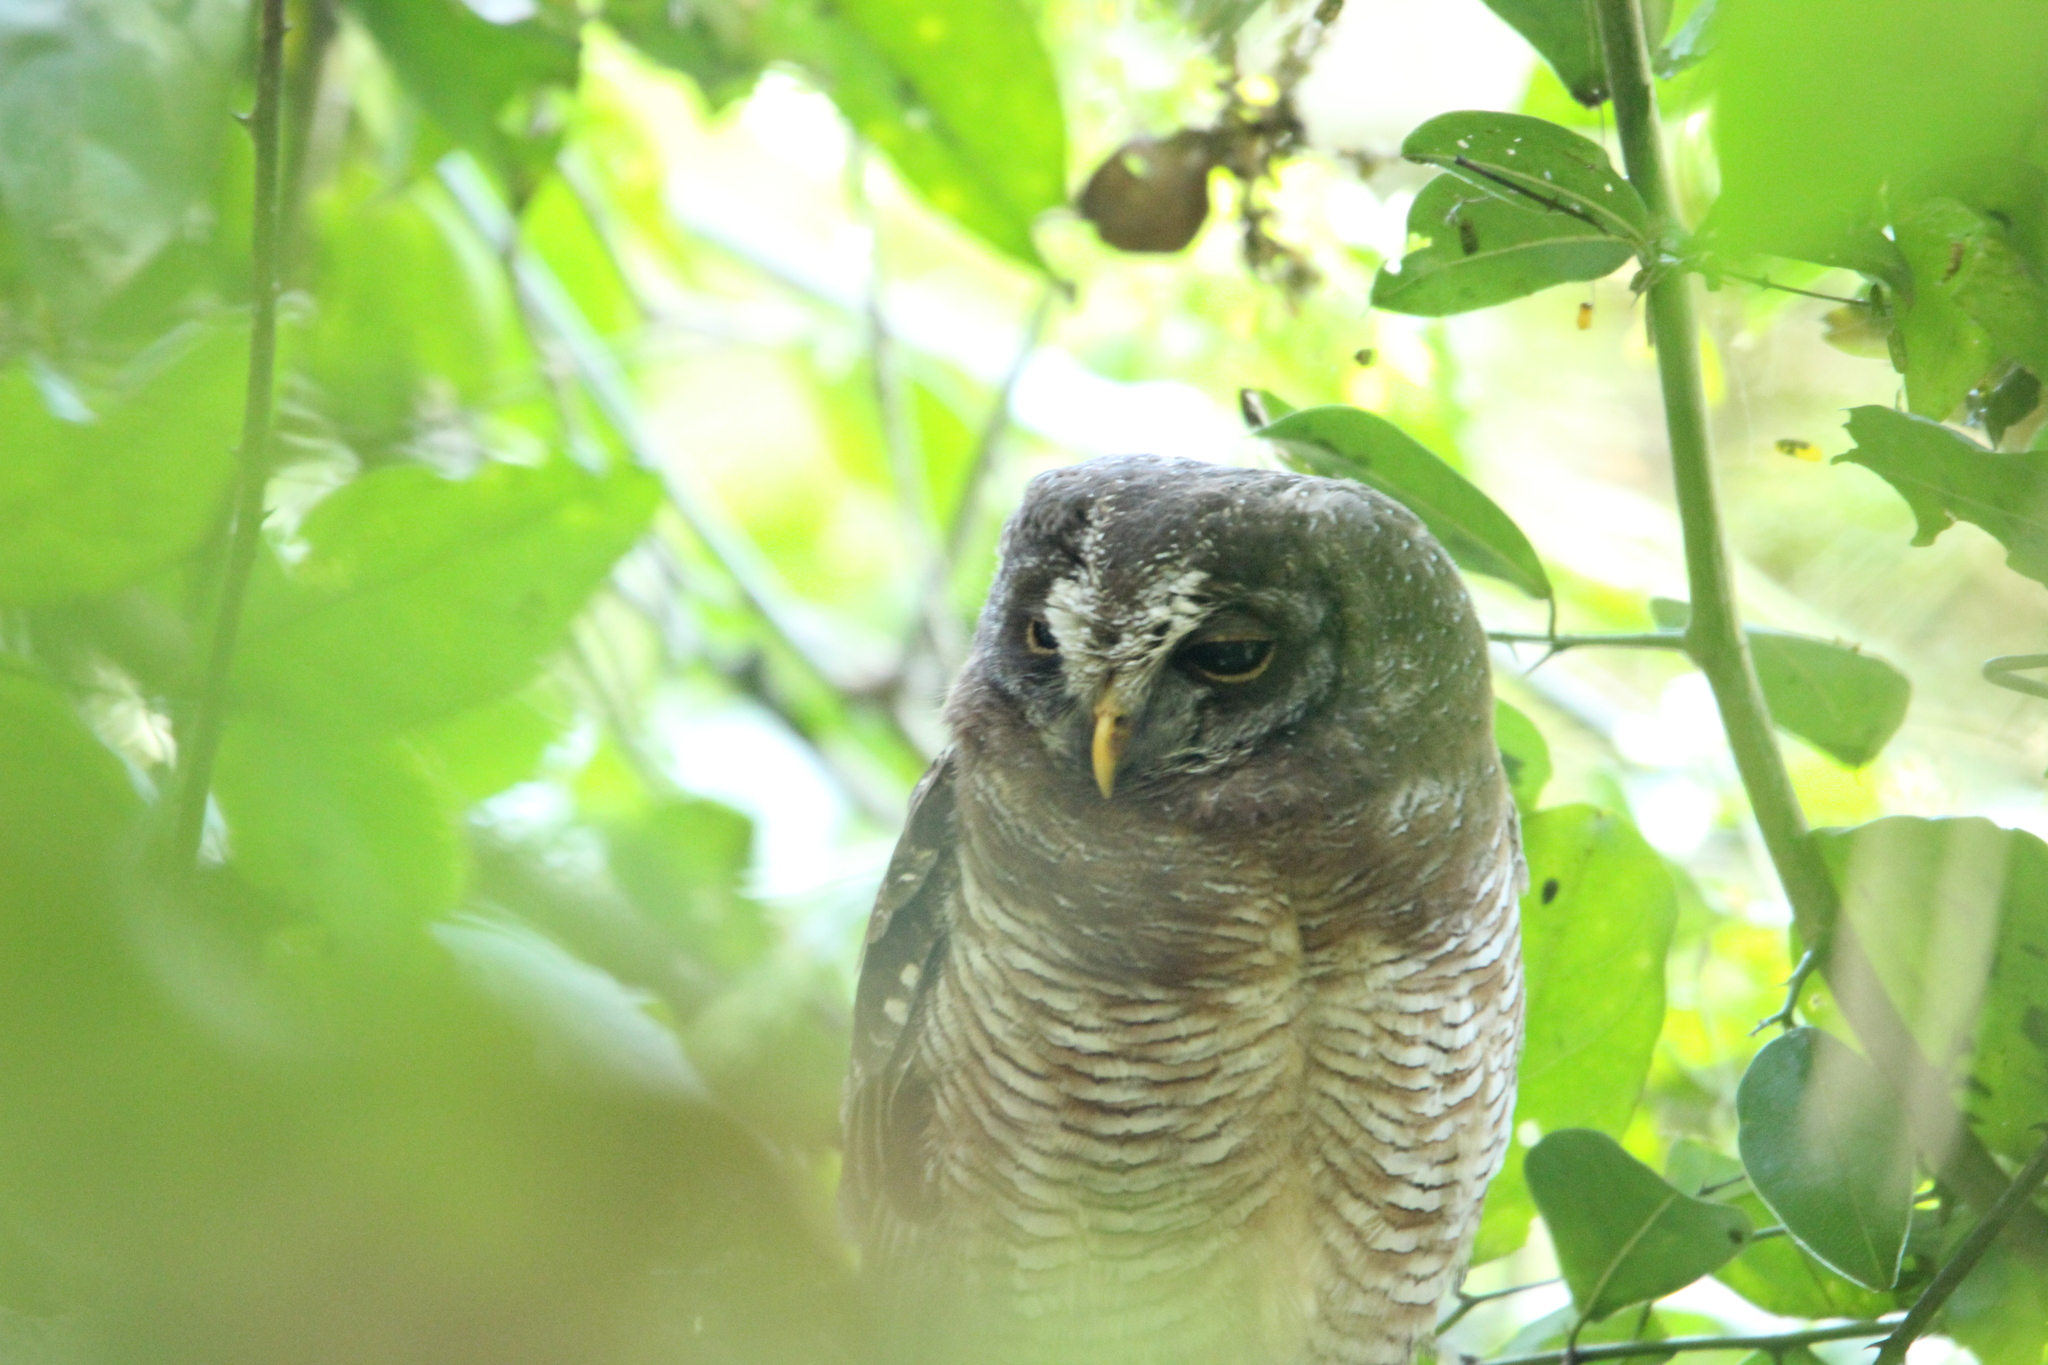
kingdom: Animalia
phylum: Chordata
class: Aves
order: Strigiformes
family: Strigidae
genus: Strix
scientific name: Strix woodfordii
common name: African wood owl
